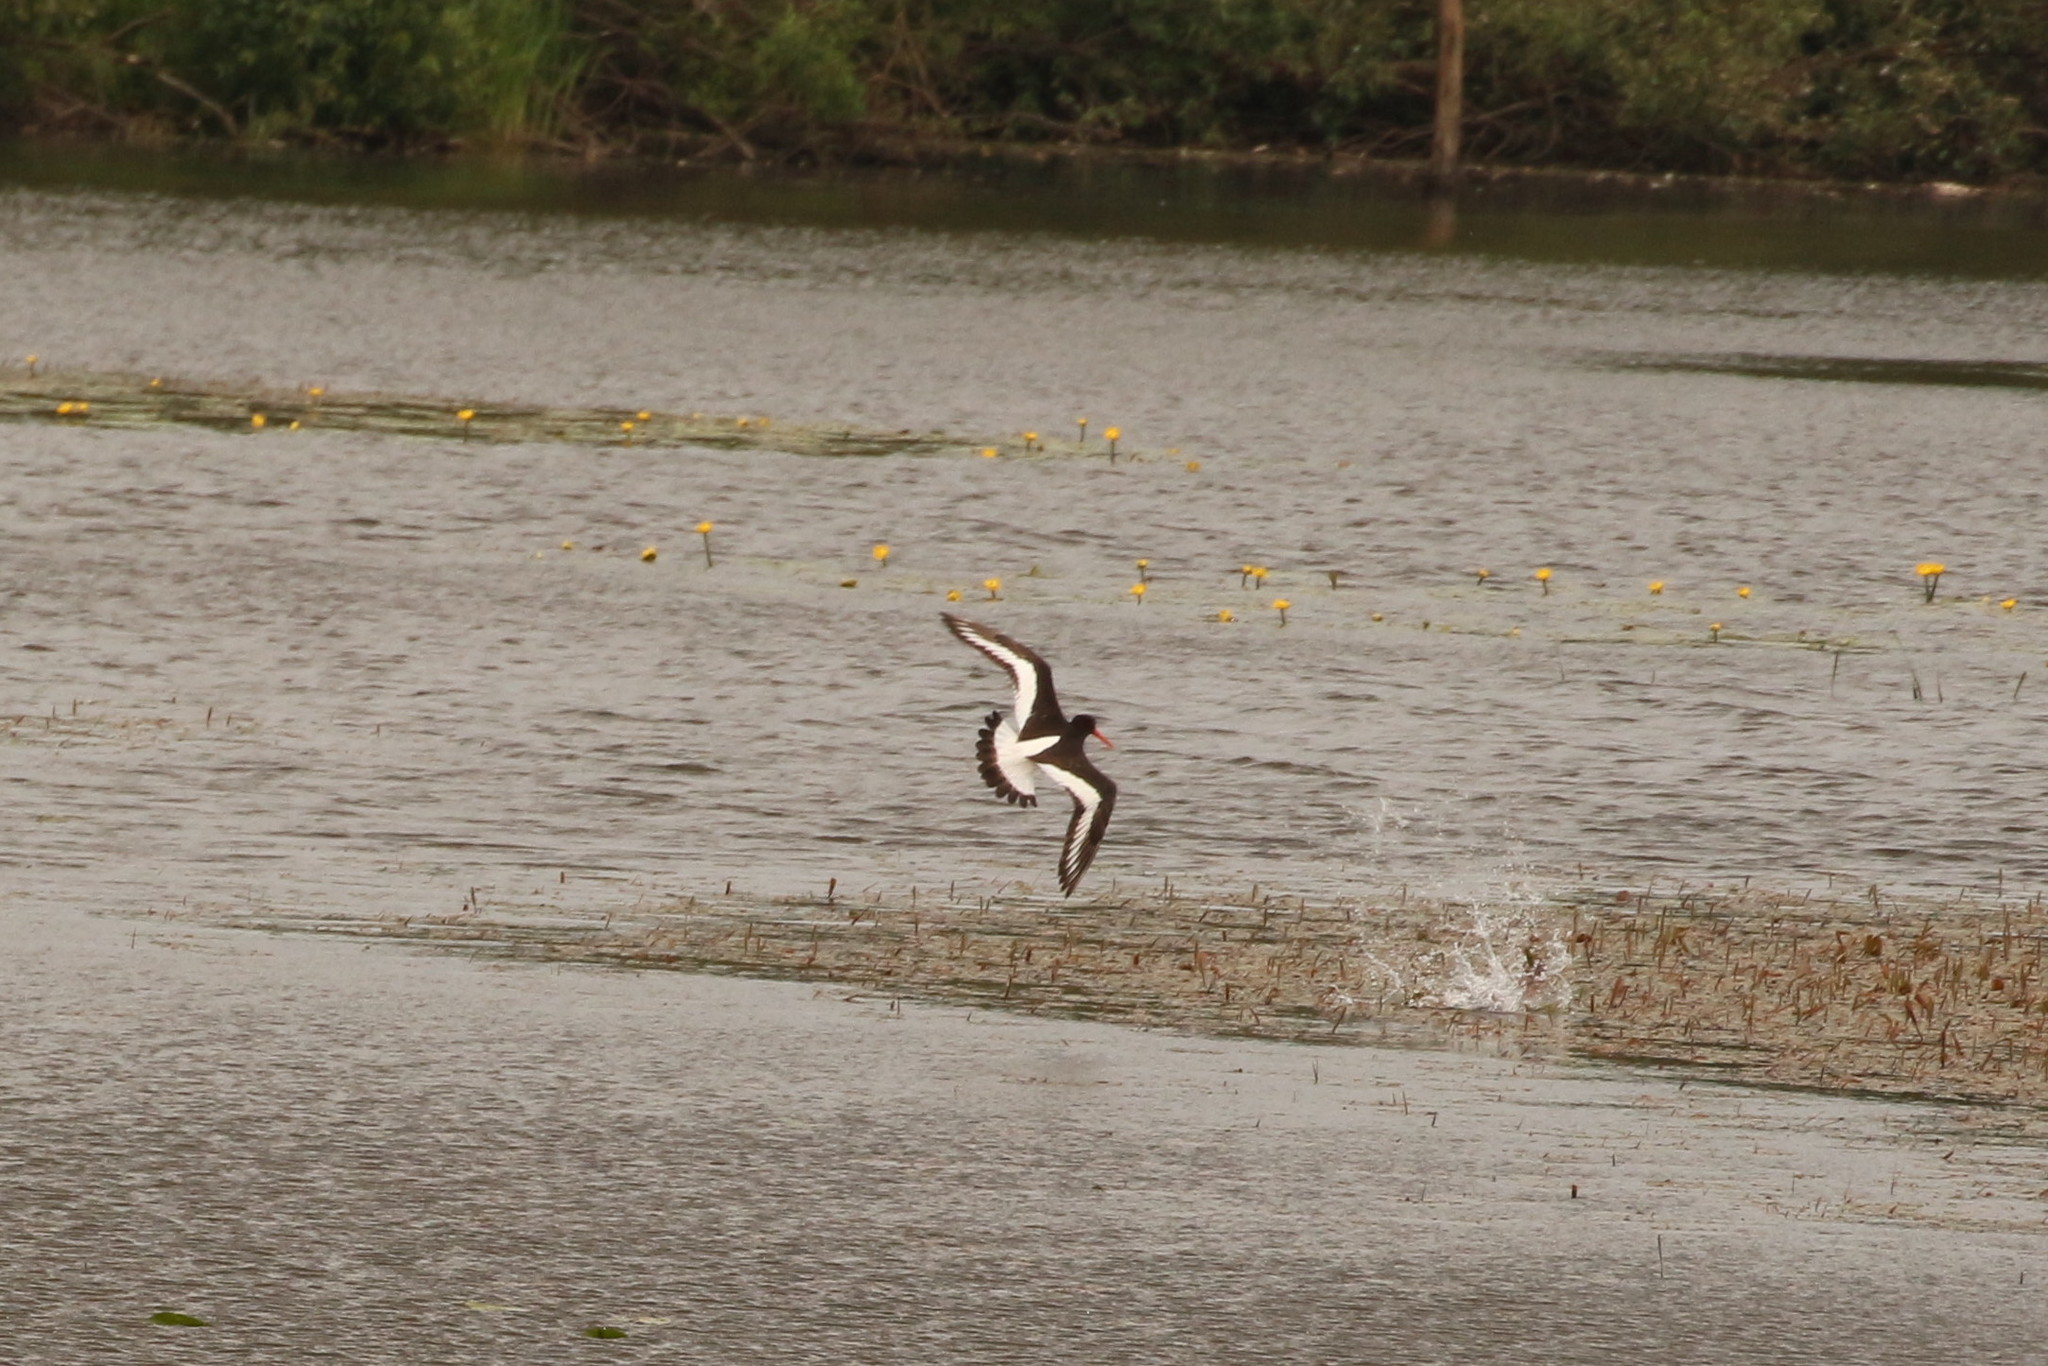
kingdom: Animalia
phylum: Chordata
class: Aves
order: Charadriiformes
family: Haematopodidae
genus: Haematopus
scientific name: Haematopus ostralegus
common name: Eurasian oystercatcher
